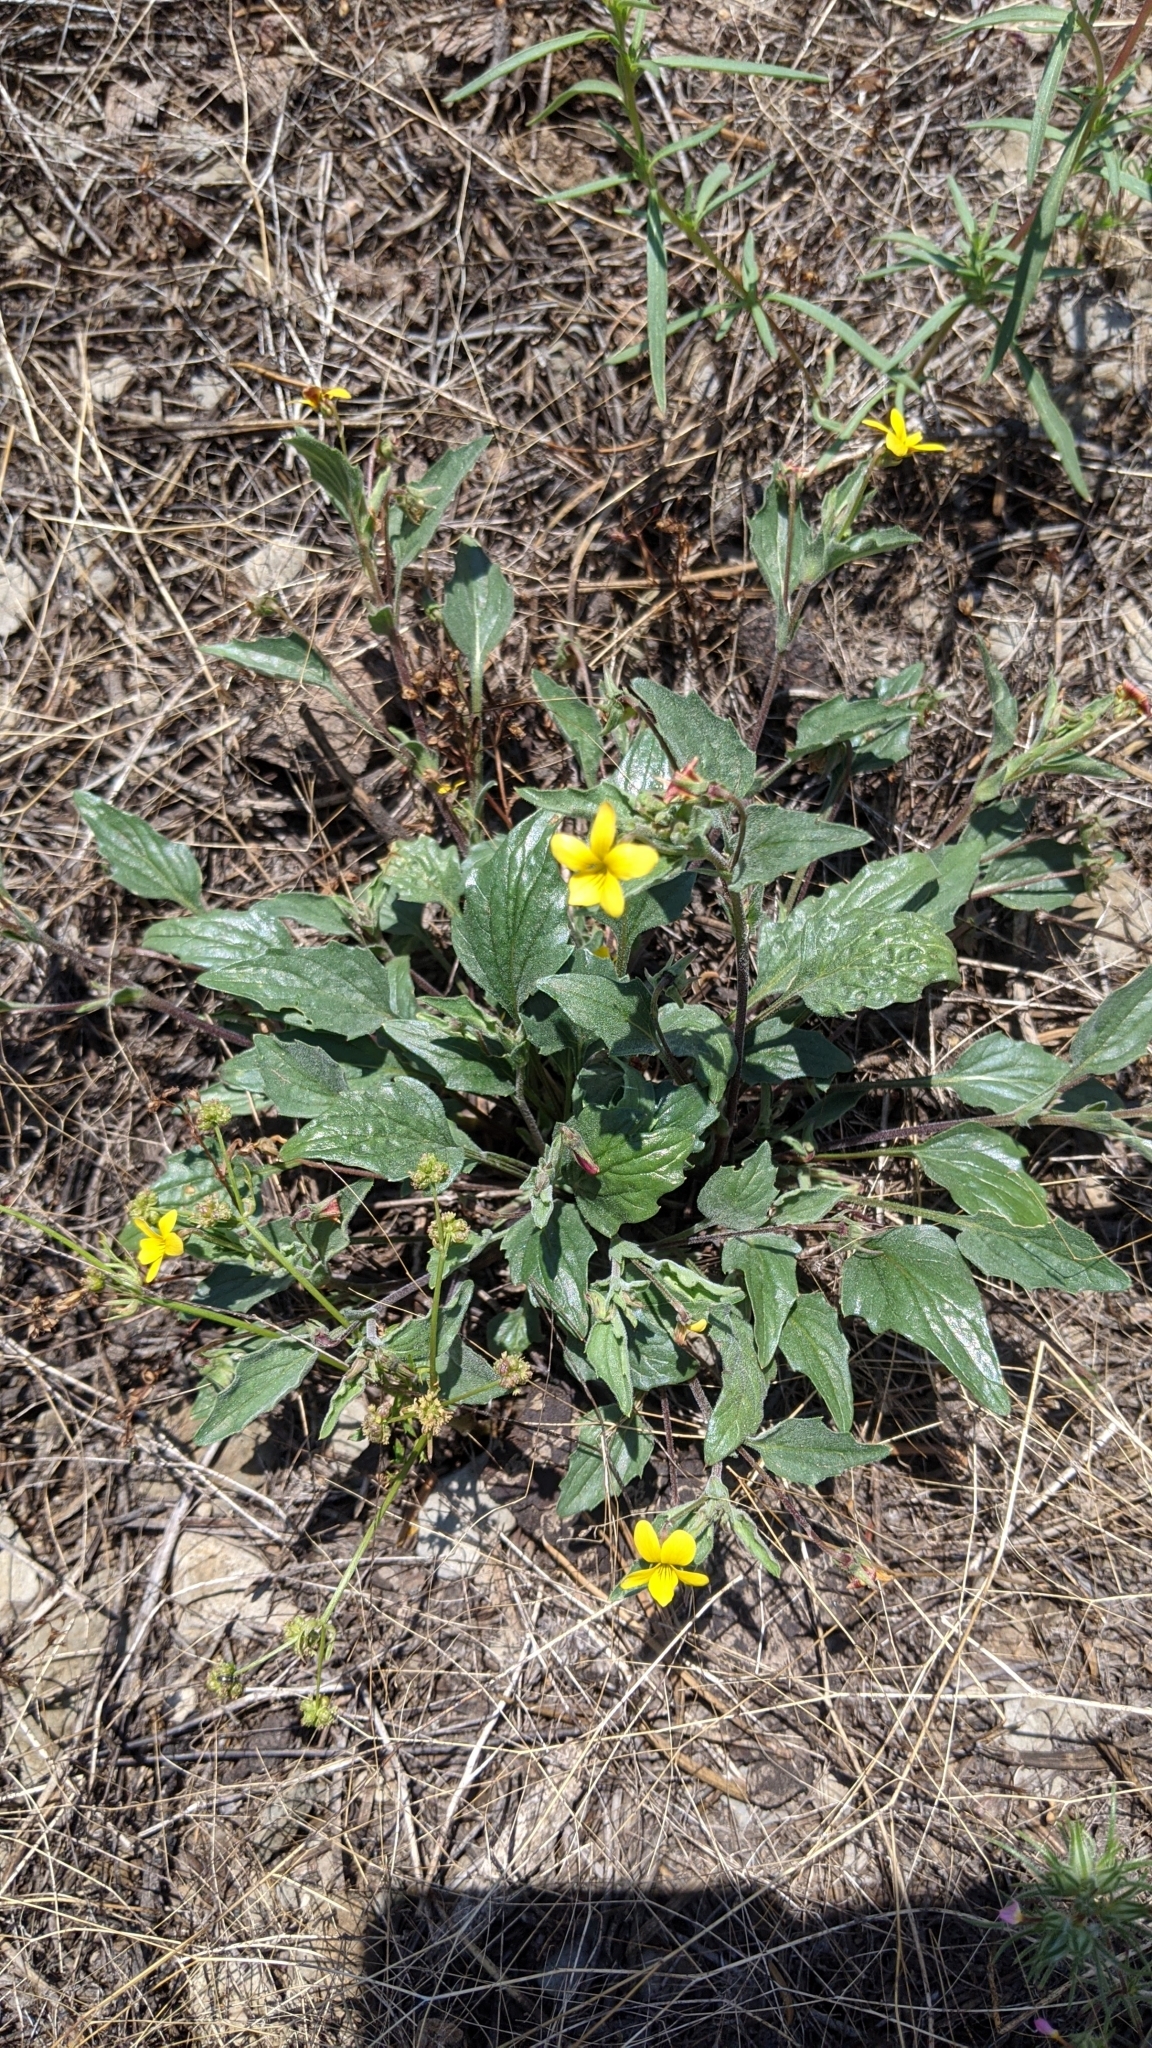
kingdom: Plantae
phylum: Tracheophyta
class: Magnoliopsida
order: Malpighiales
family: Violaceae
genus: Viola
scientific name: Viola purpurea
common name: Pine violet
